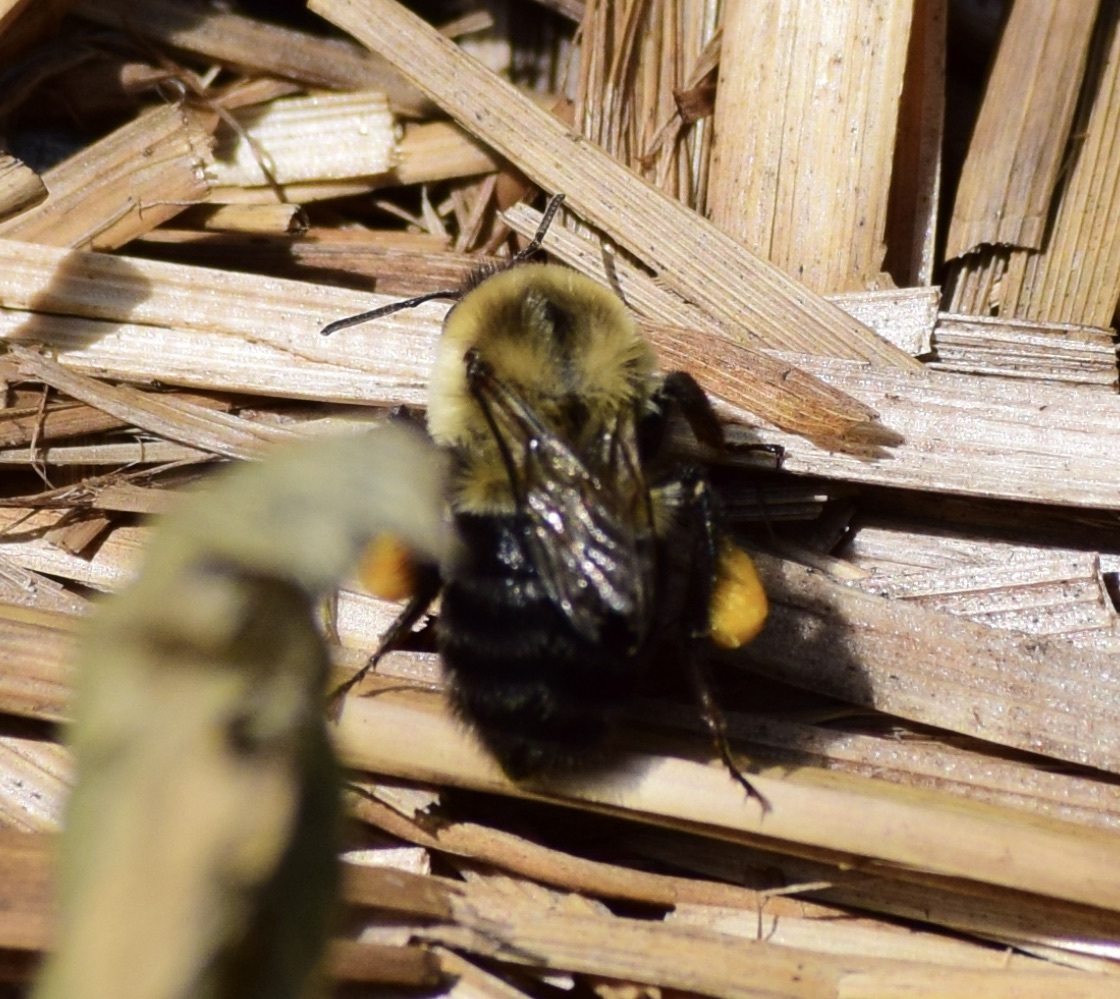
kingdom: Animalia
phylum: Arthropoda
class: Insecta
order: Hymenoptera
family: Apidae
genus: Bombus
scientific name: Bombus impatiens
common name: Common eastern bumble bee
